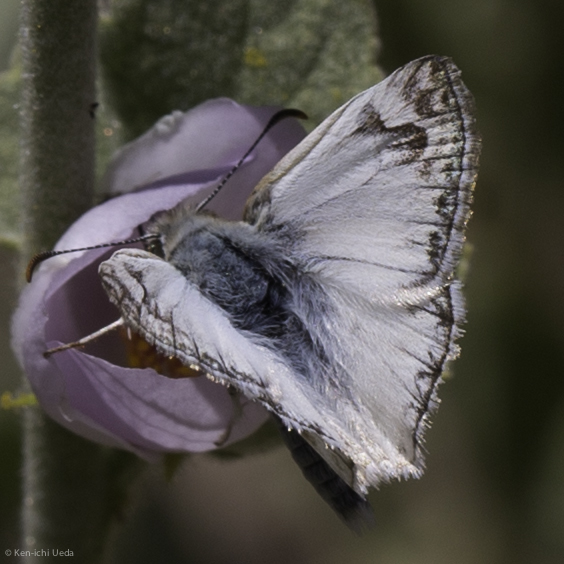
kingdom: Animalia
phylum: Arthropoda
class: Insecta
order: Lepidoptera
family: Hesperiidae
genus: Heliopetes
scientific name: Heliopetes ericetorum
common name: Northern white-skipper
